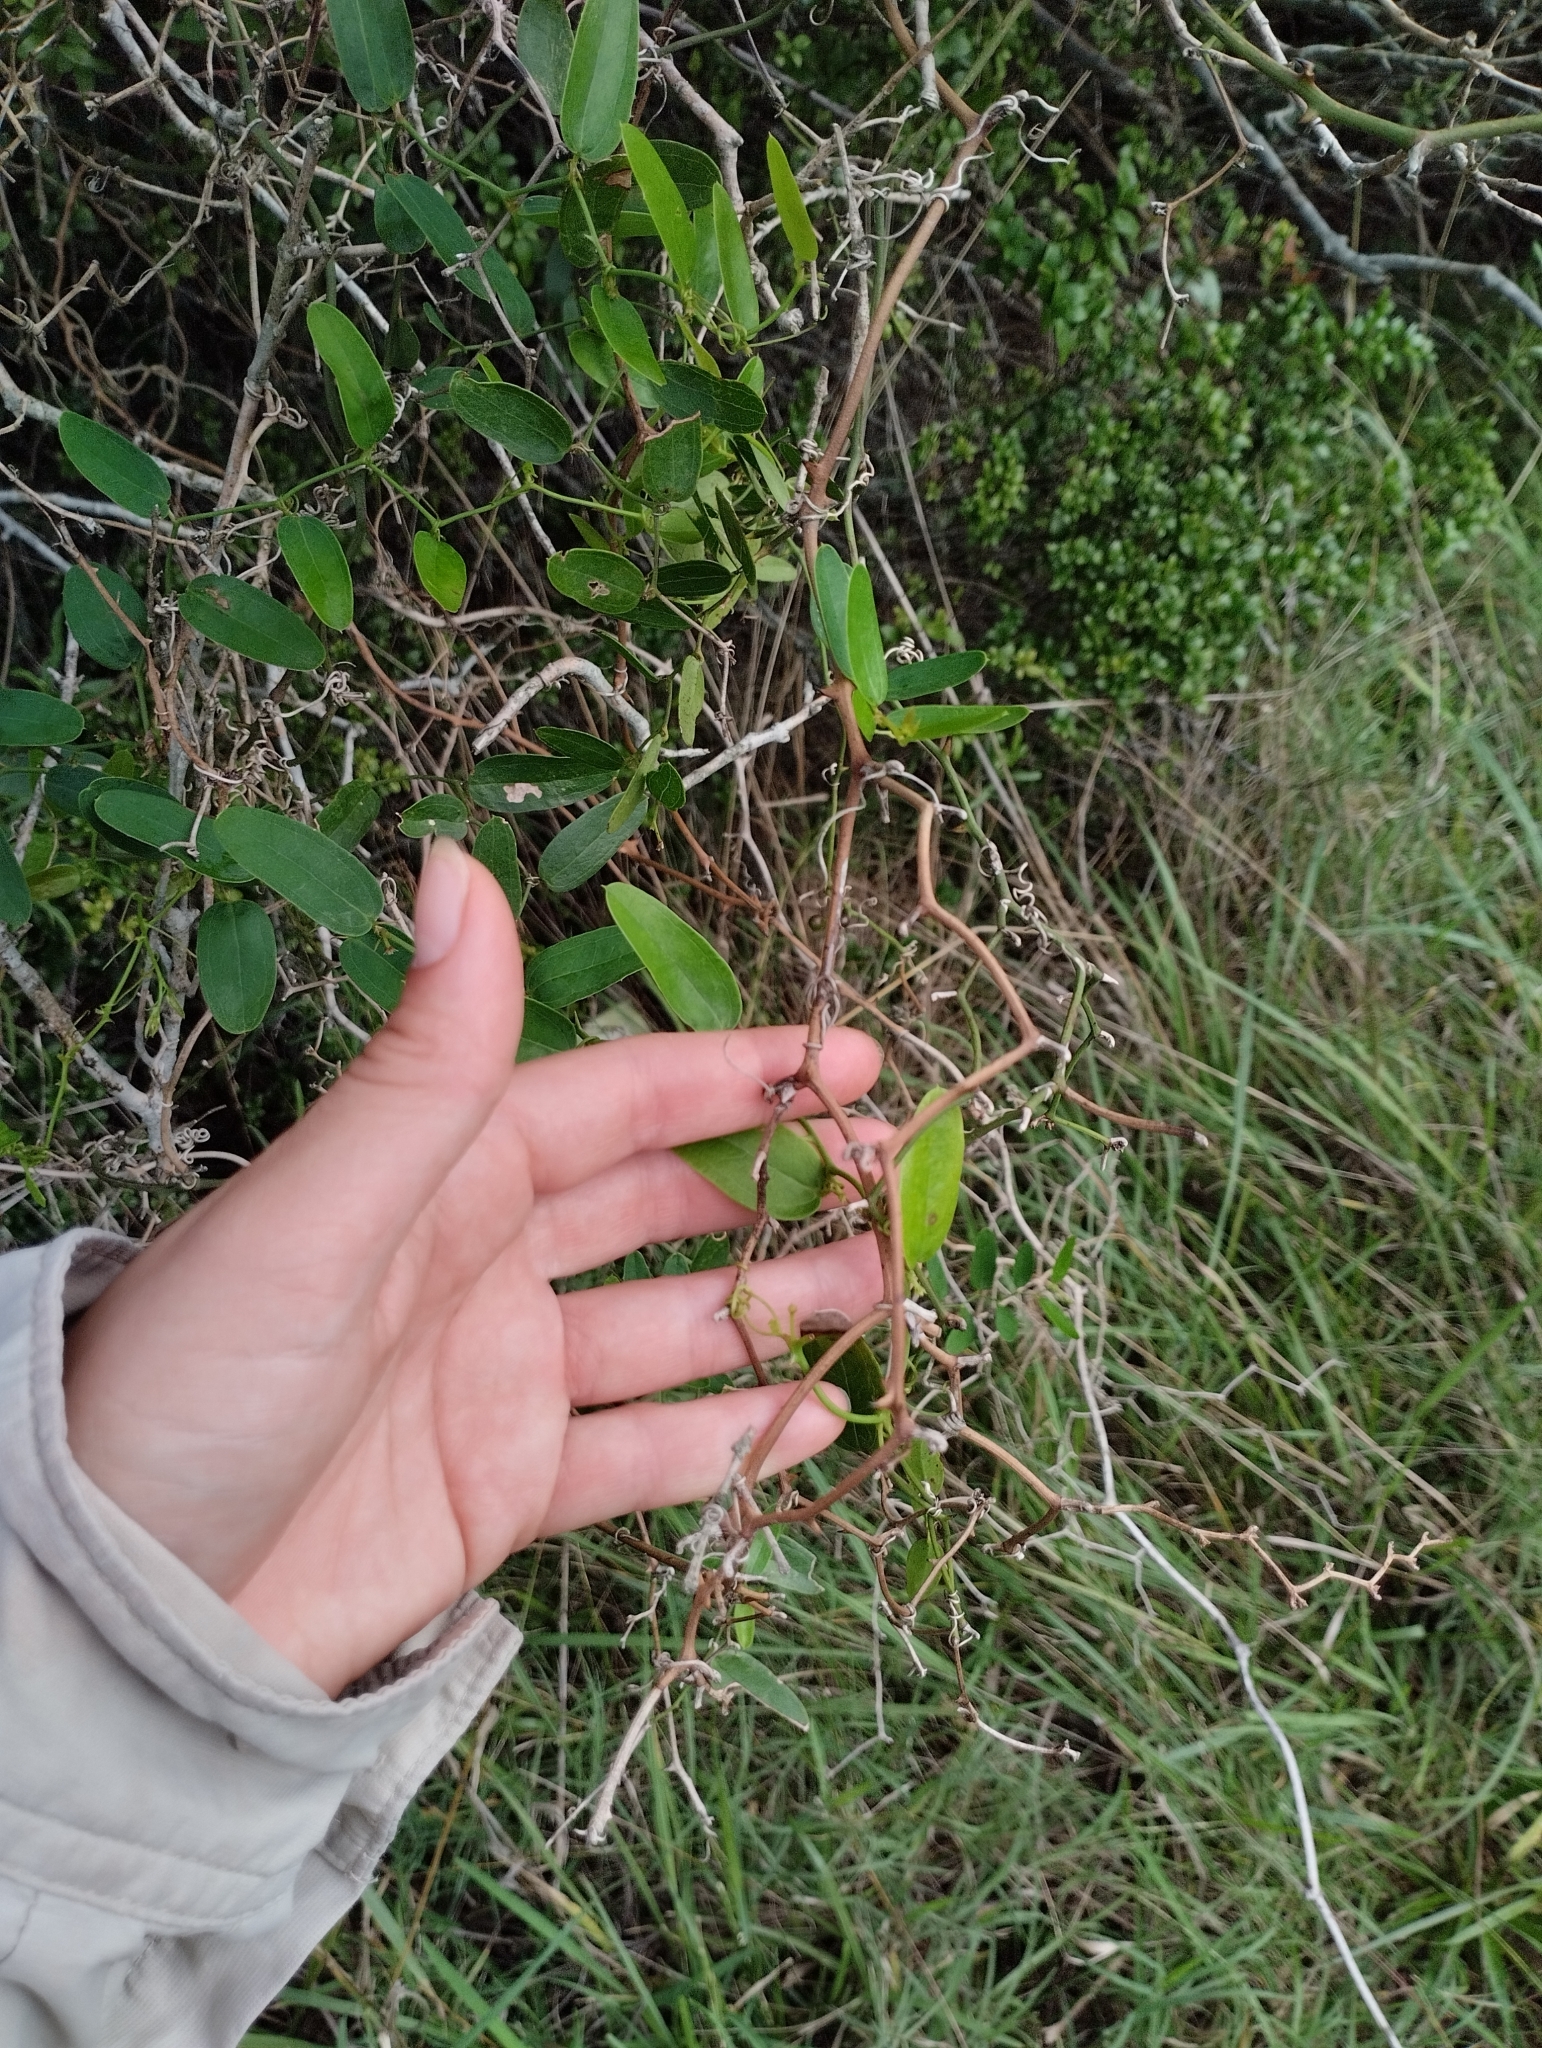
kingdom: Plantae
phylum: Tracheophyta
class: Liliopsida
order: Liliales
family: Smilacaceae
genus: Smilax
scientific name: Smilax campestris
